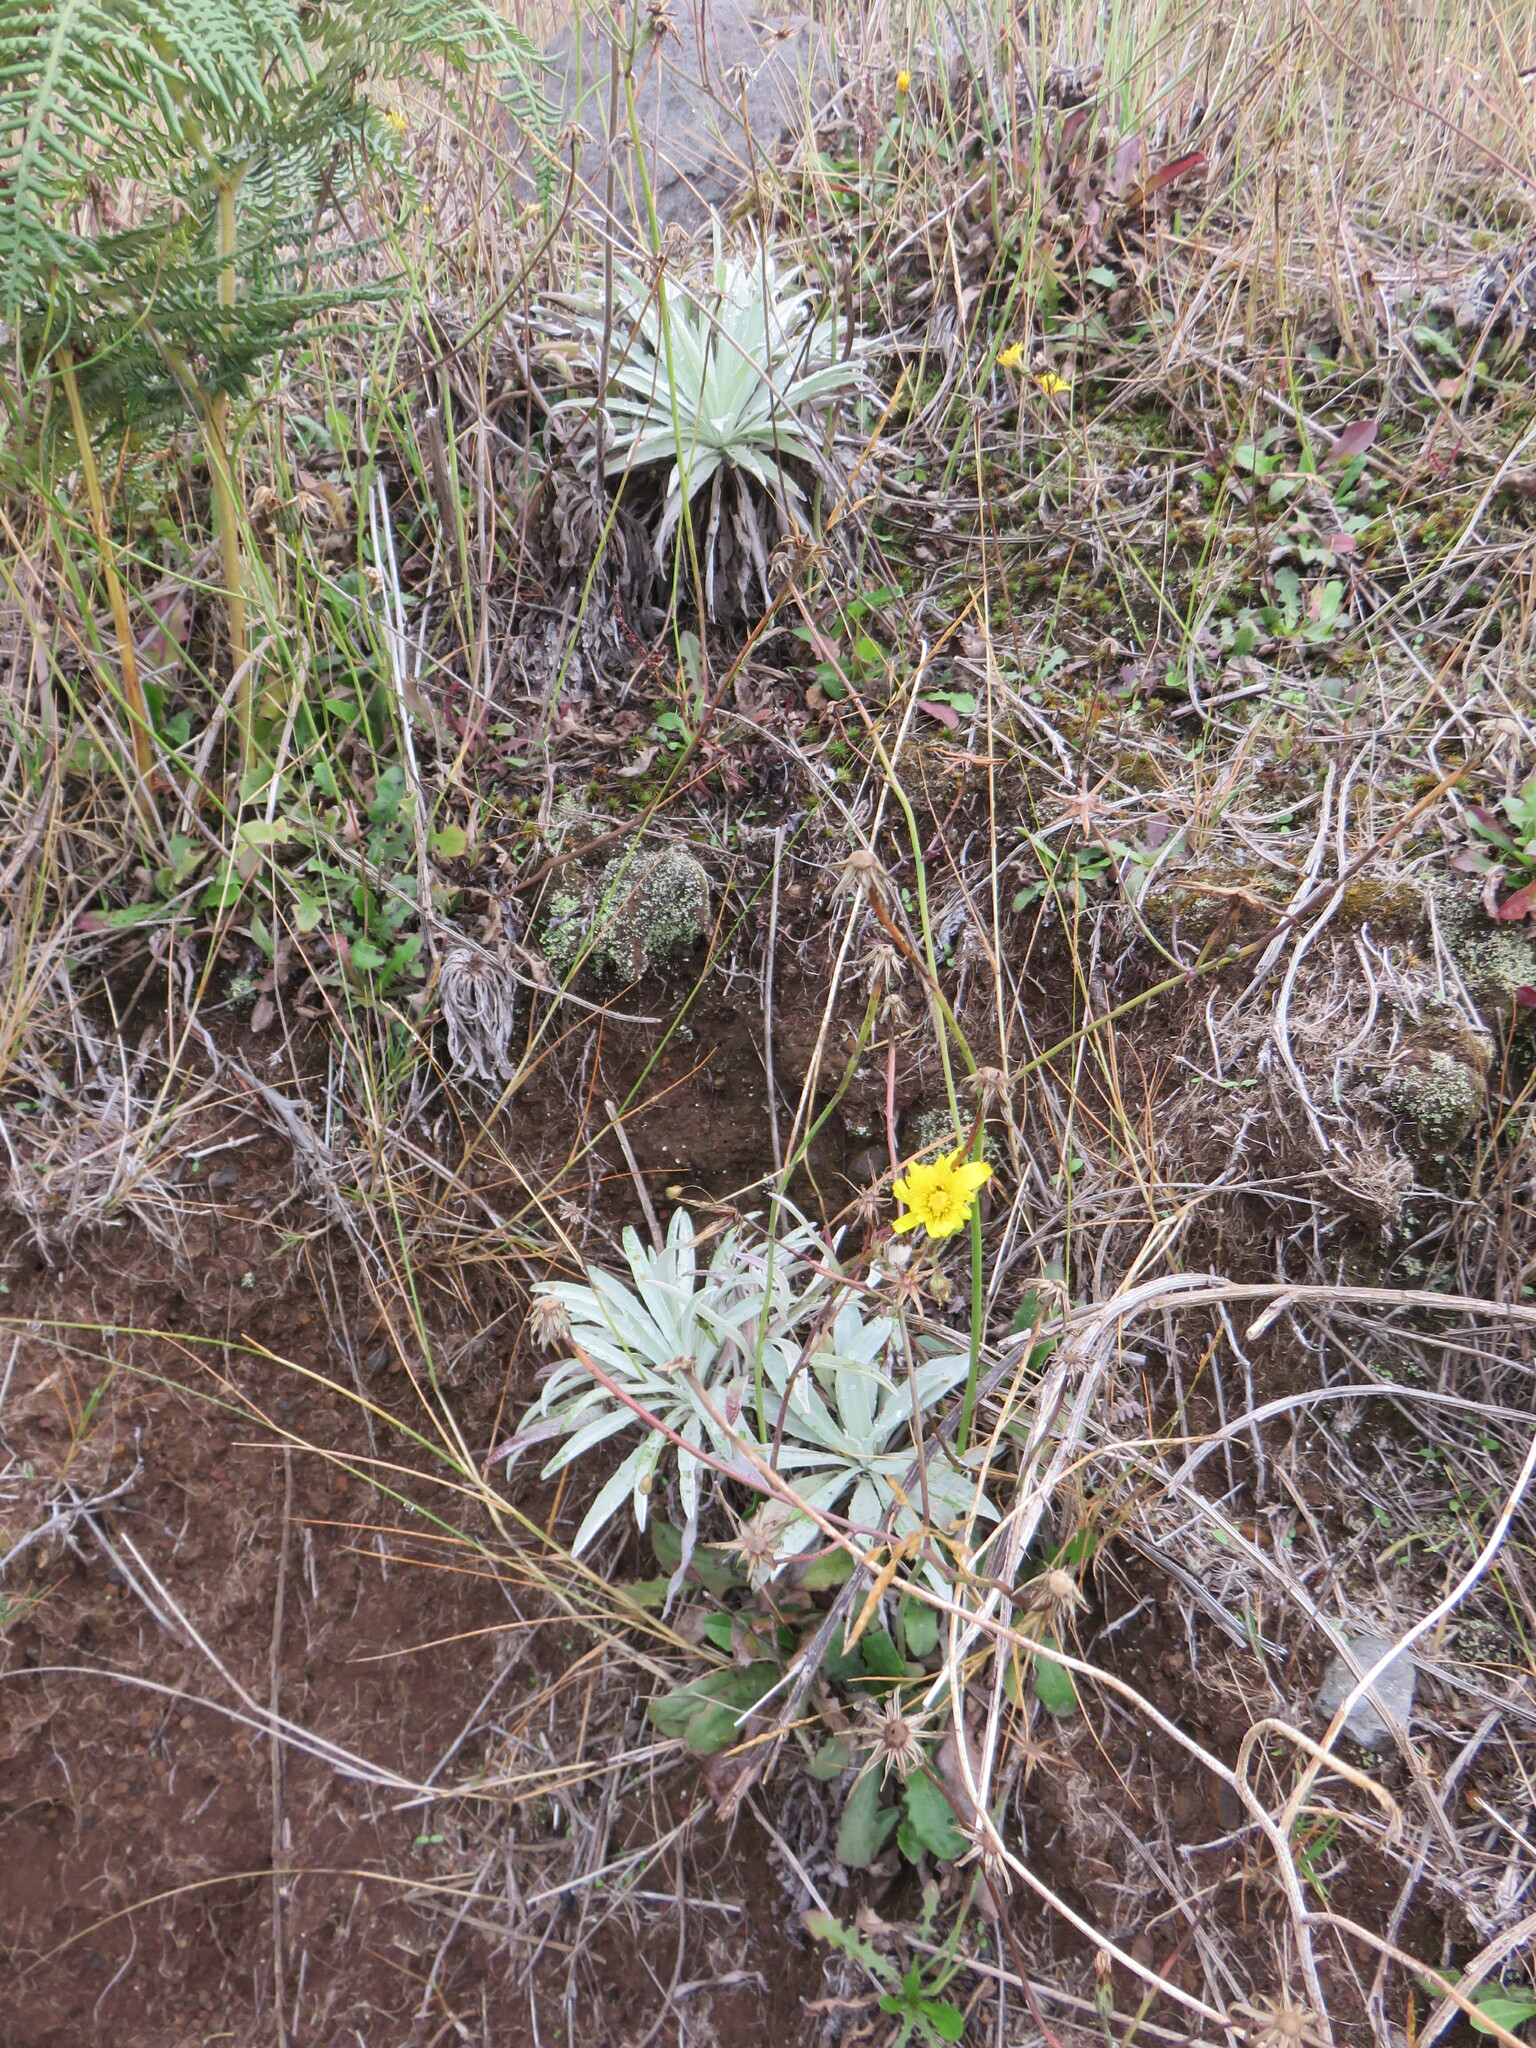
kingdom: Plantae
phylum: Tracheophyta
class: Magnoliopsida
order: Asterales
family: Asteraceae
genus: Andryala
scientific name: Andryala glandulosa
